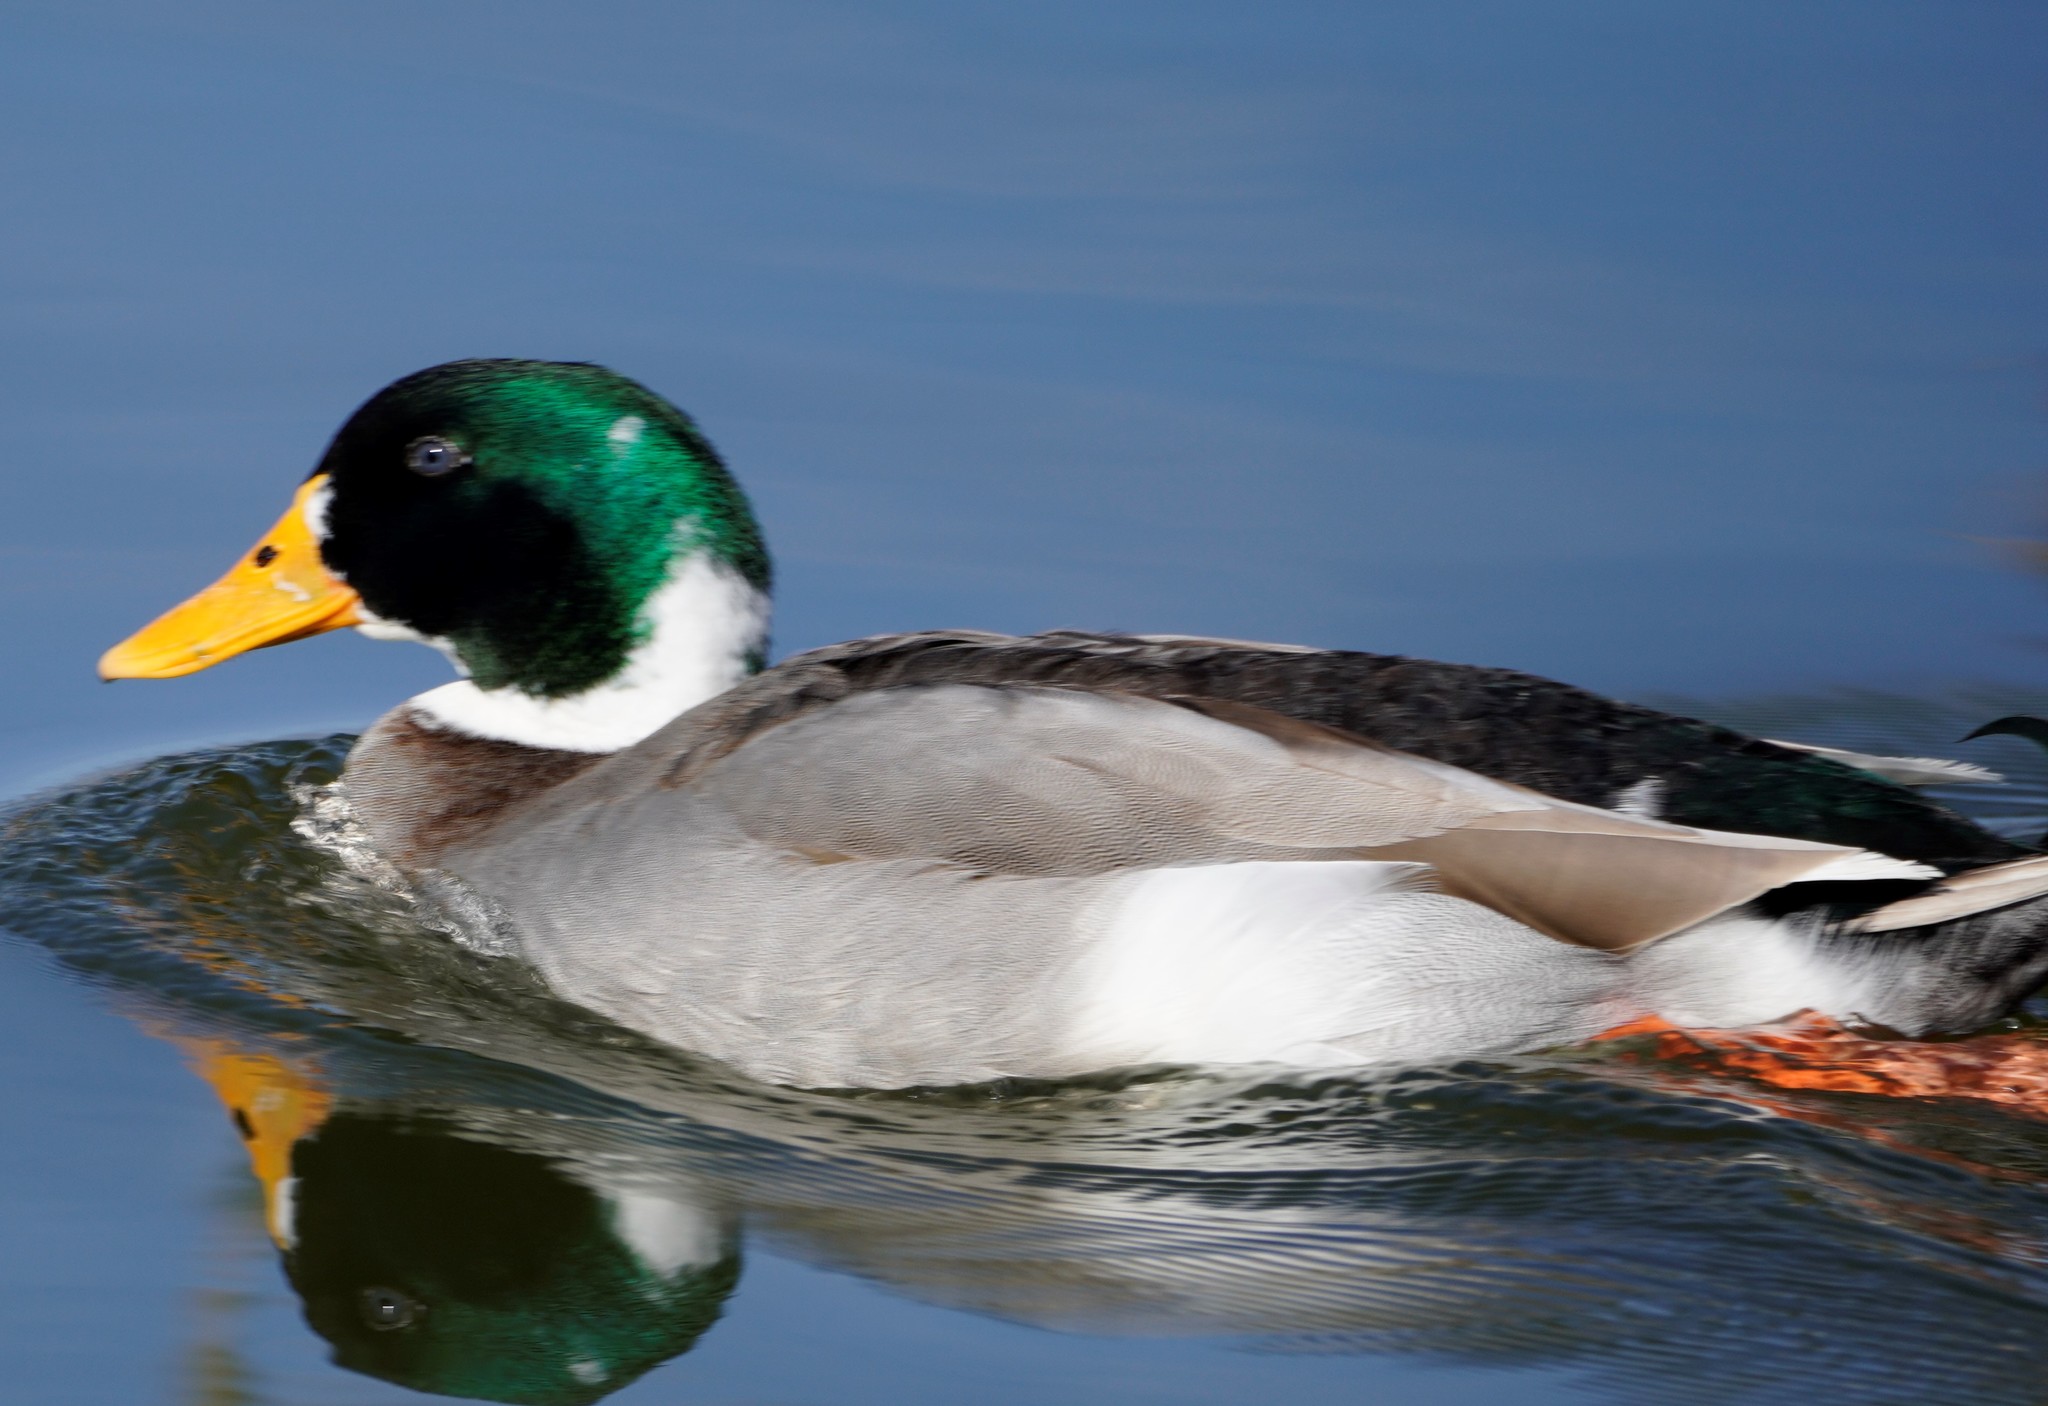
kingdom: Animalia
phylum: Chordata
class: Aves
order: Anseriformes
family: Anatidae
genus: Anas
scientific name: Anas platyrhynchos
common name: Mallard
